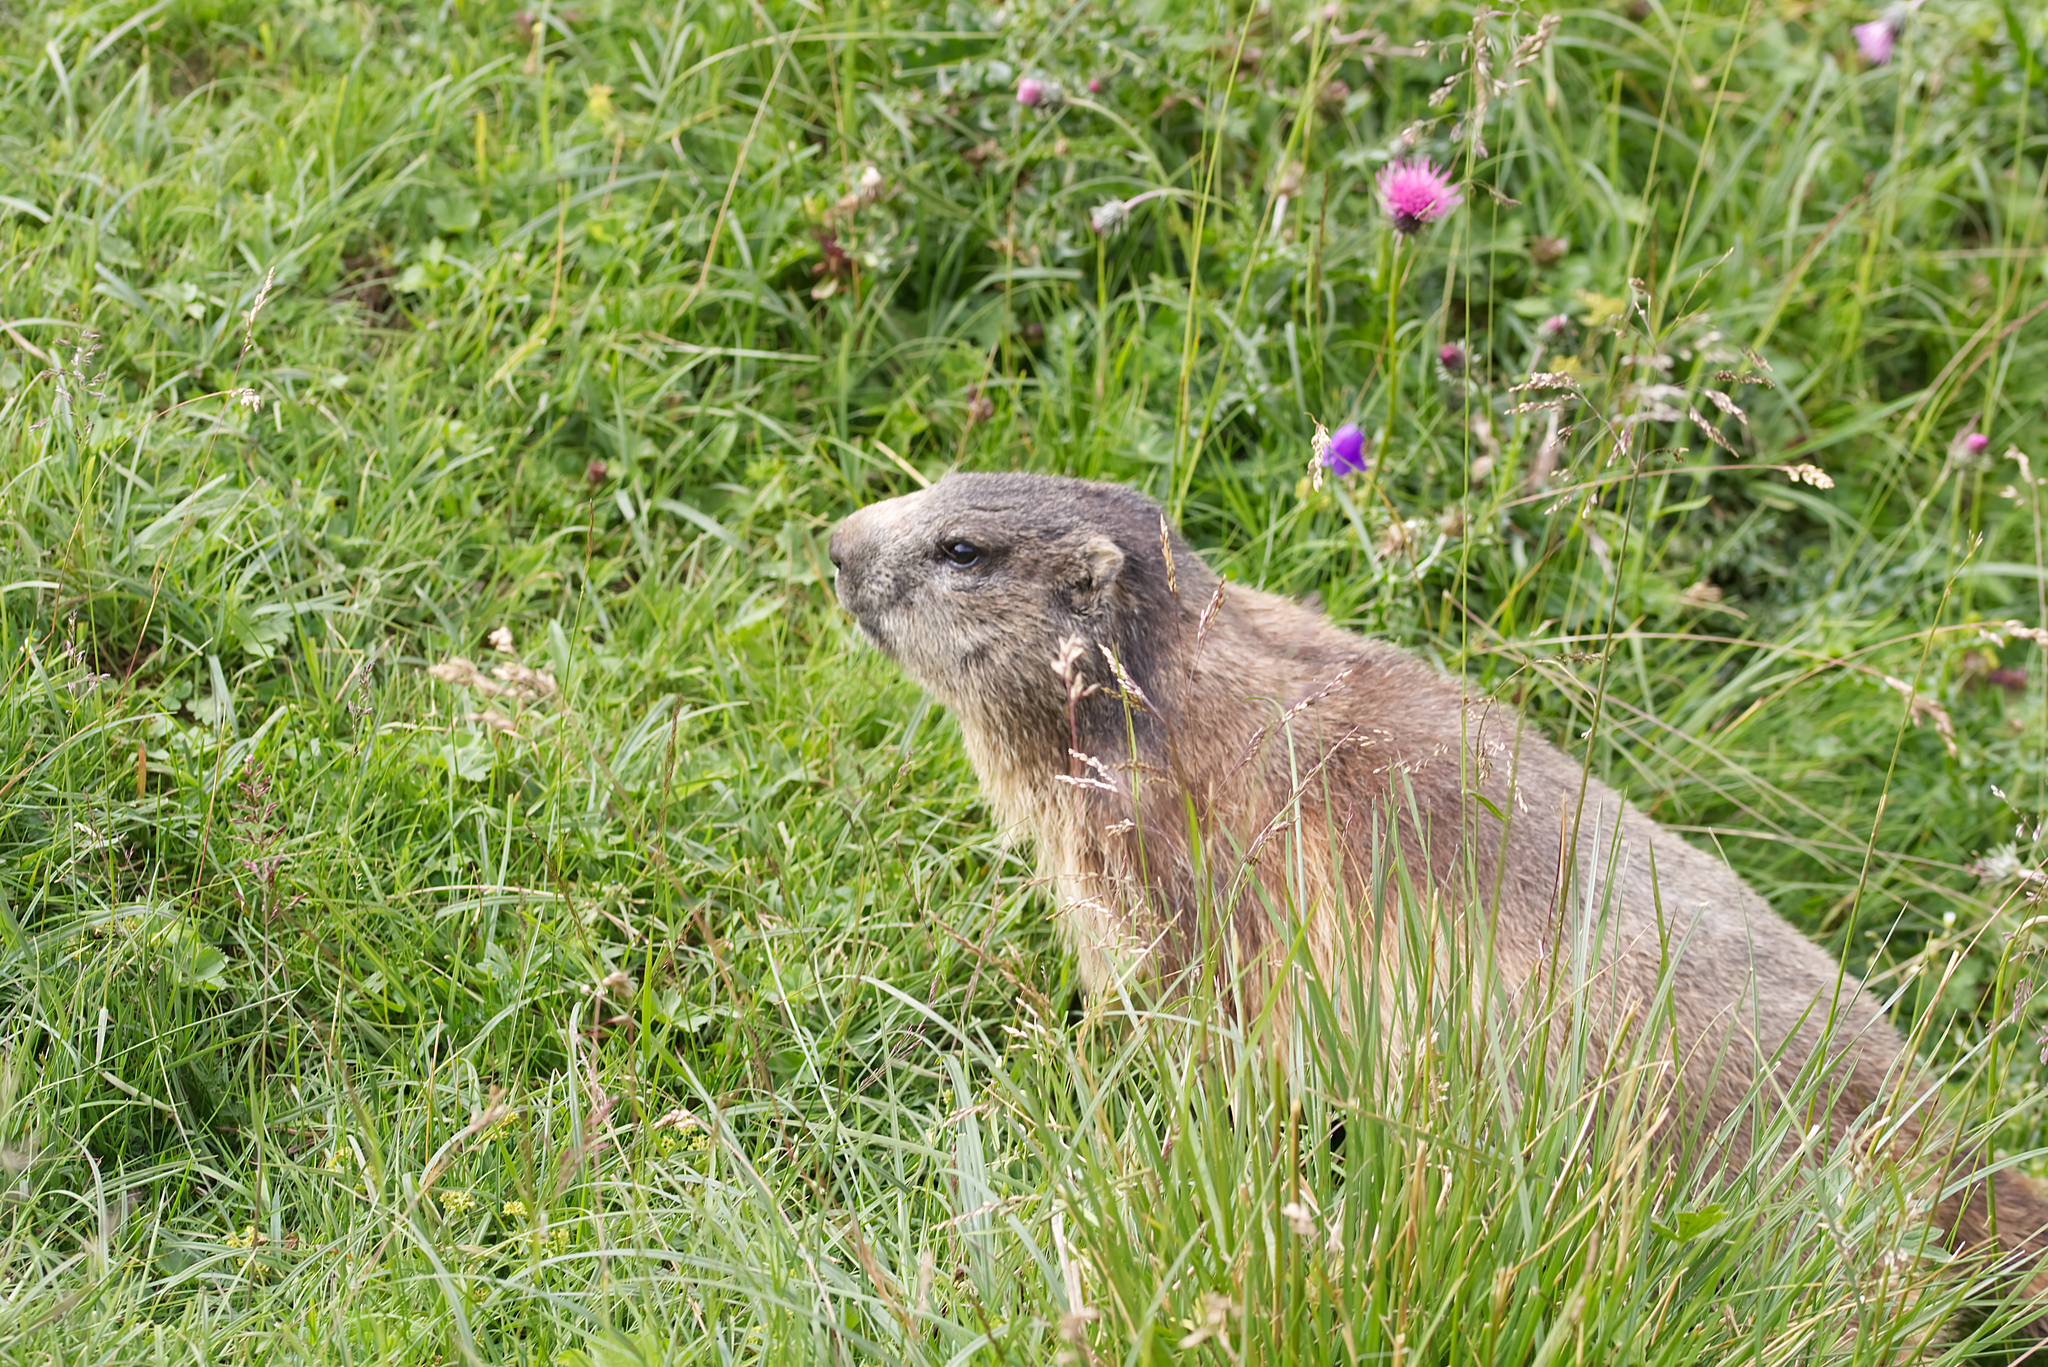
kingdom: Animalia
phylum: Chordata
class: Mammalia
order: Rodentia
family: Sciuridae
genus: Marmota
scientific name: Marmota marmota
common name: Alpine marmot
